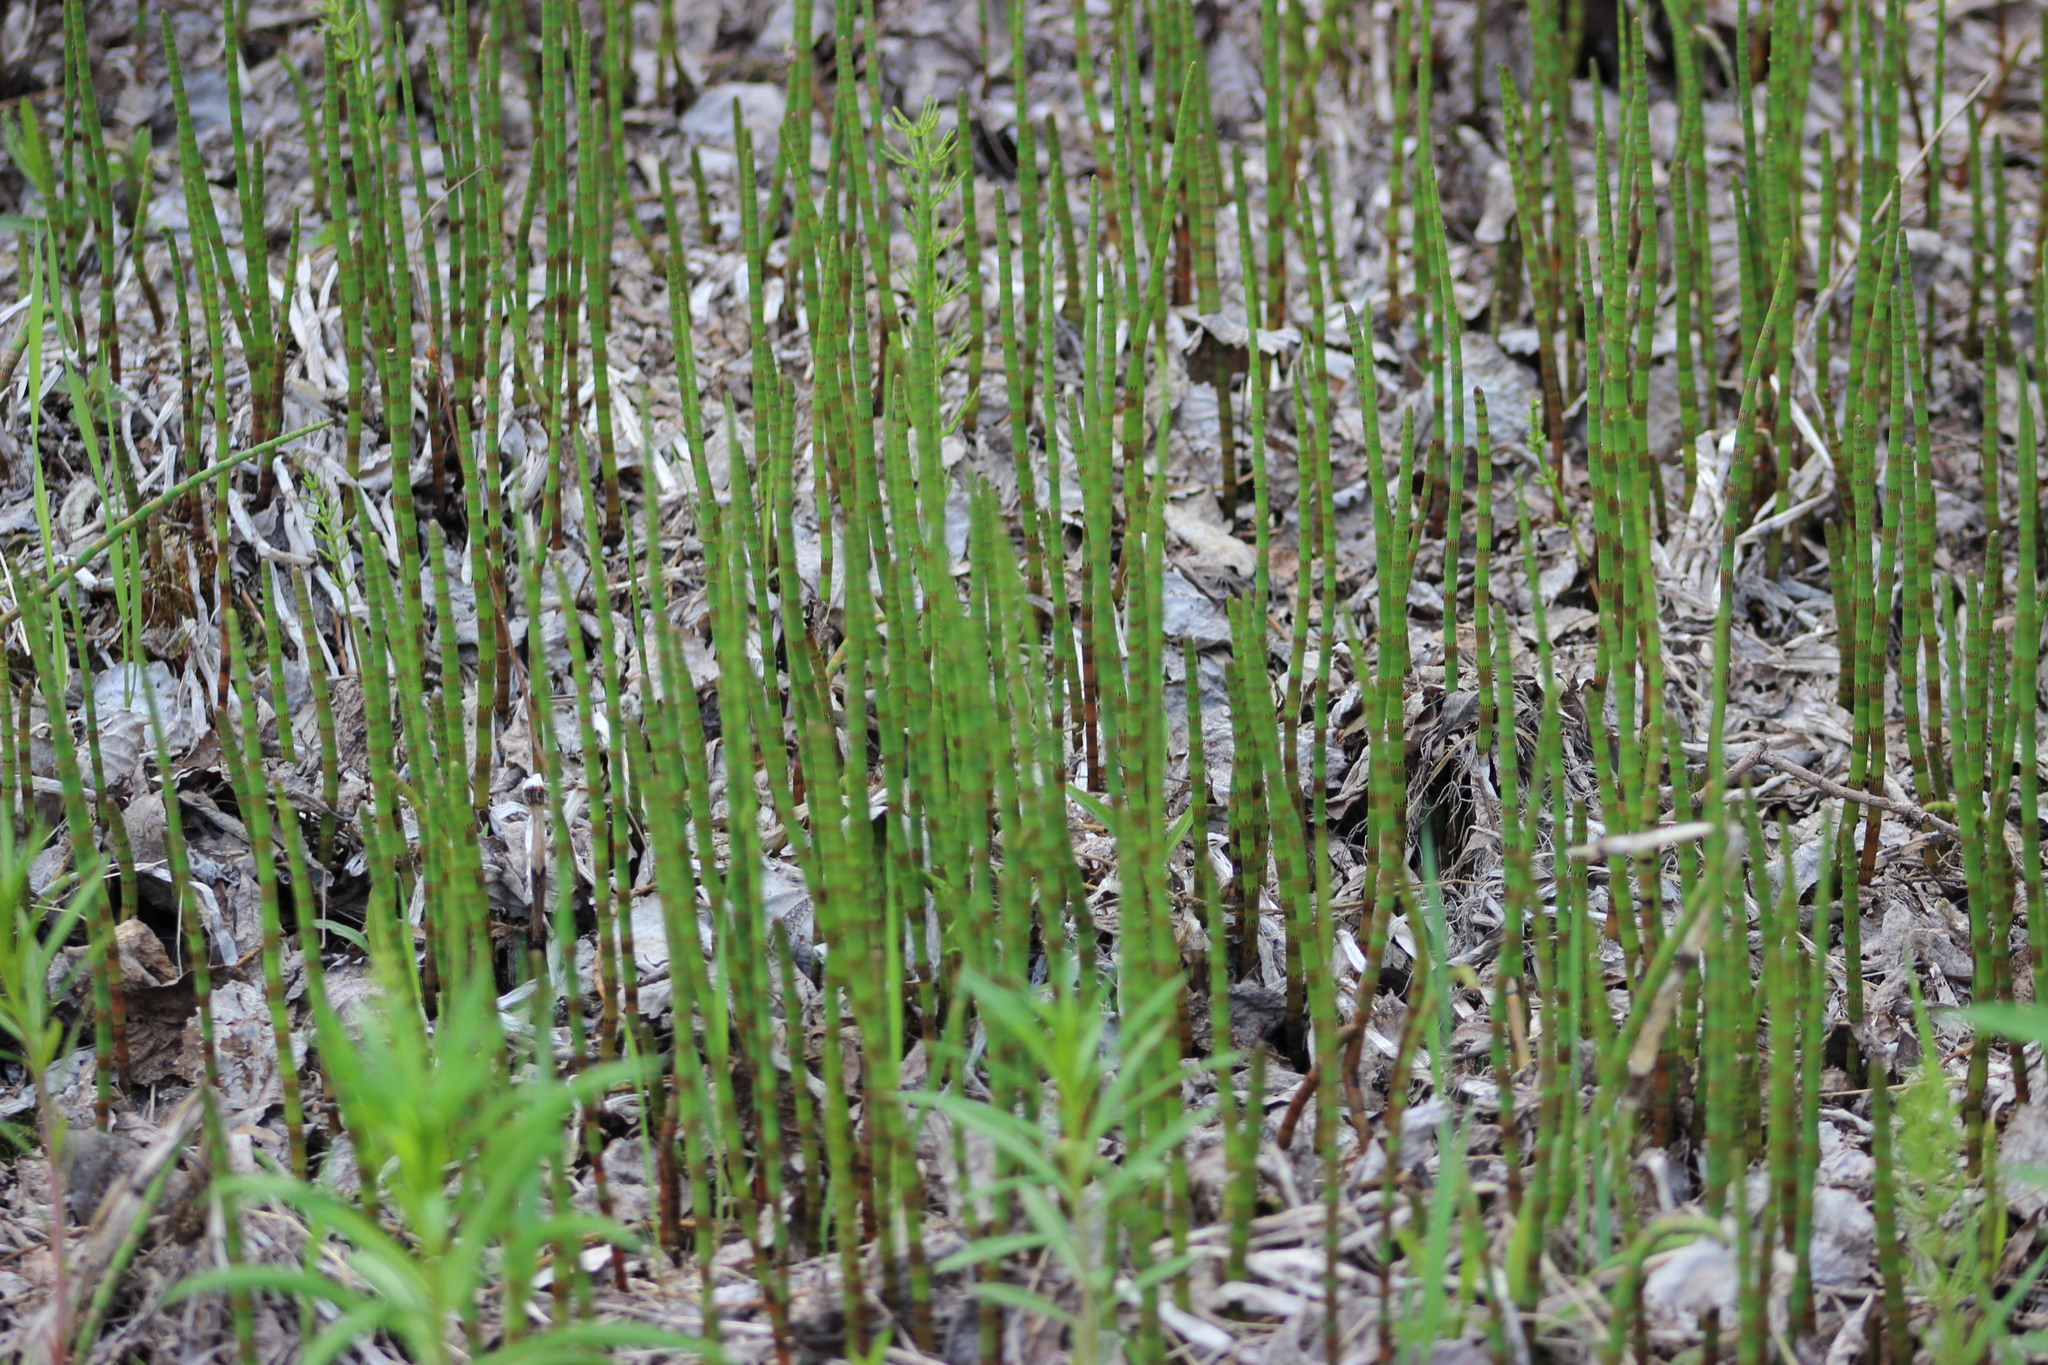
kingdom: Plantae
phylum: Tracheophyta
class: Polypodiopsida
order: Equisetales
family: Equisetaceae
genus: Equisetum
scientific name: Equisetum fluviatile
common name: Water horsetail
